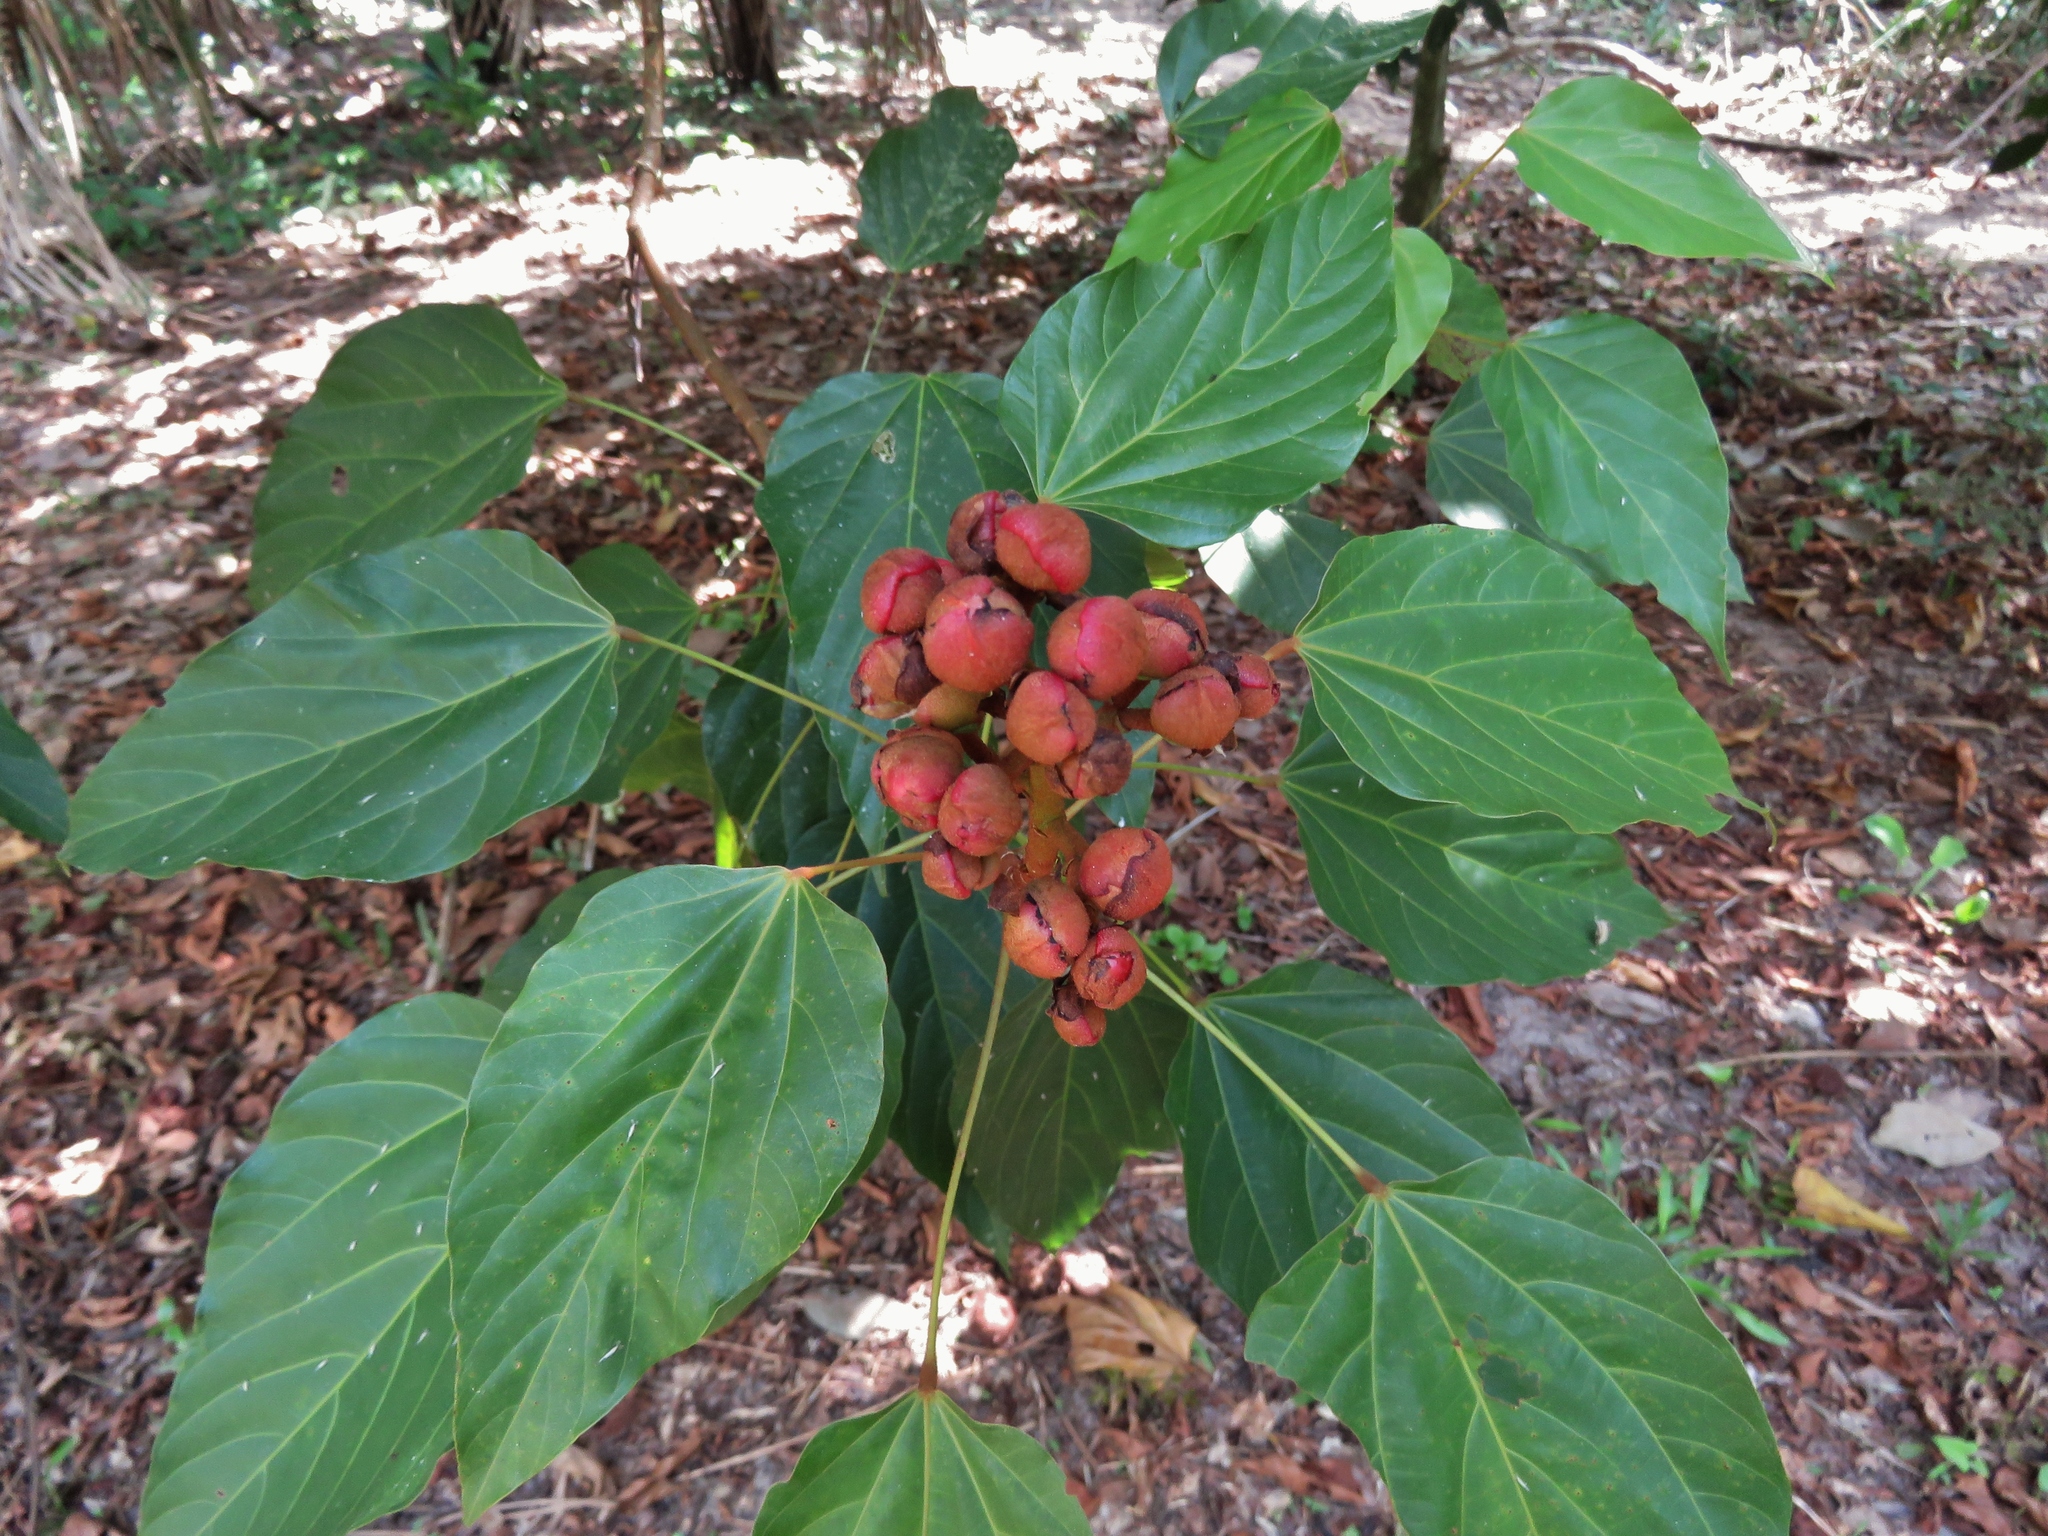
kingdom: Plantae
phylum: Tracheophyta
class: Magnoliopsida
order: Malvales
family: Bixaceae
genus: Bixa
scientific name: Bixa orellana
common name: Lipsticktree
